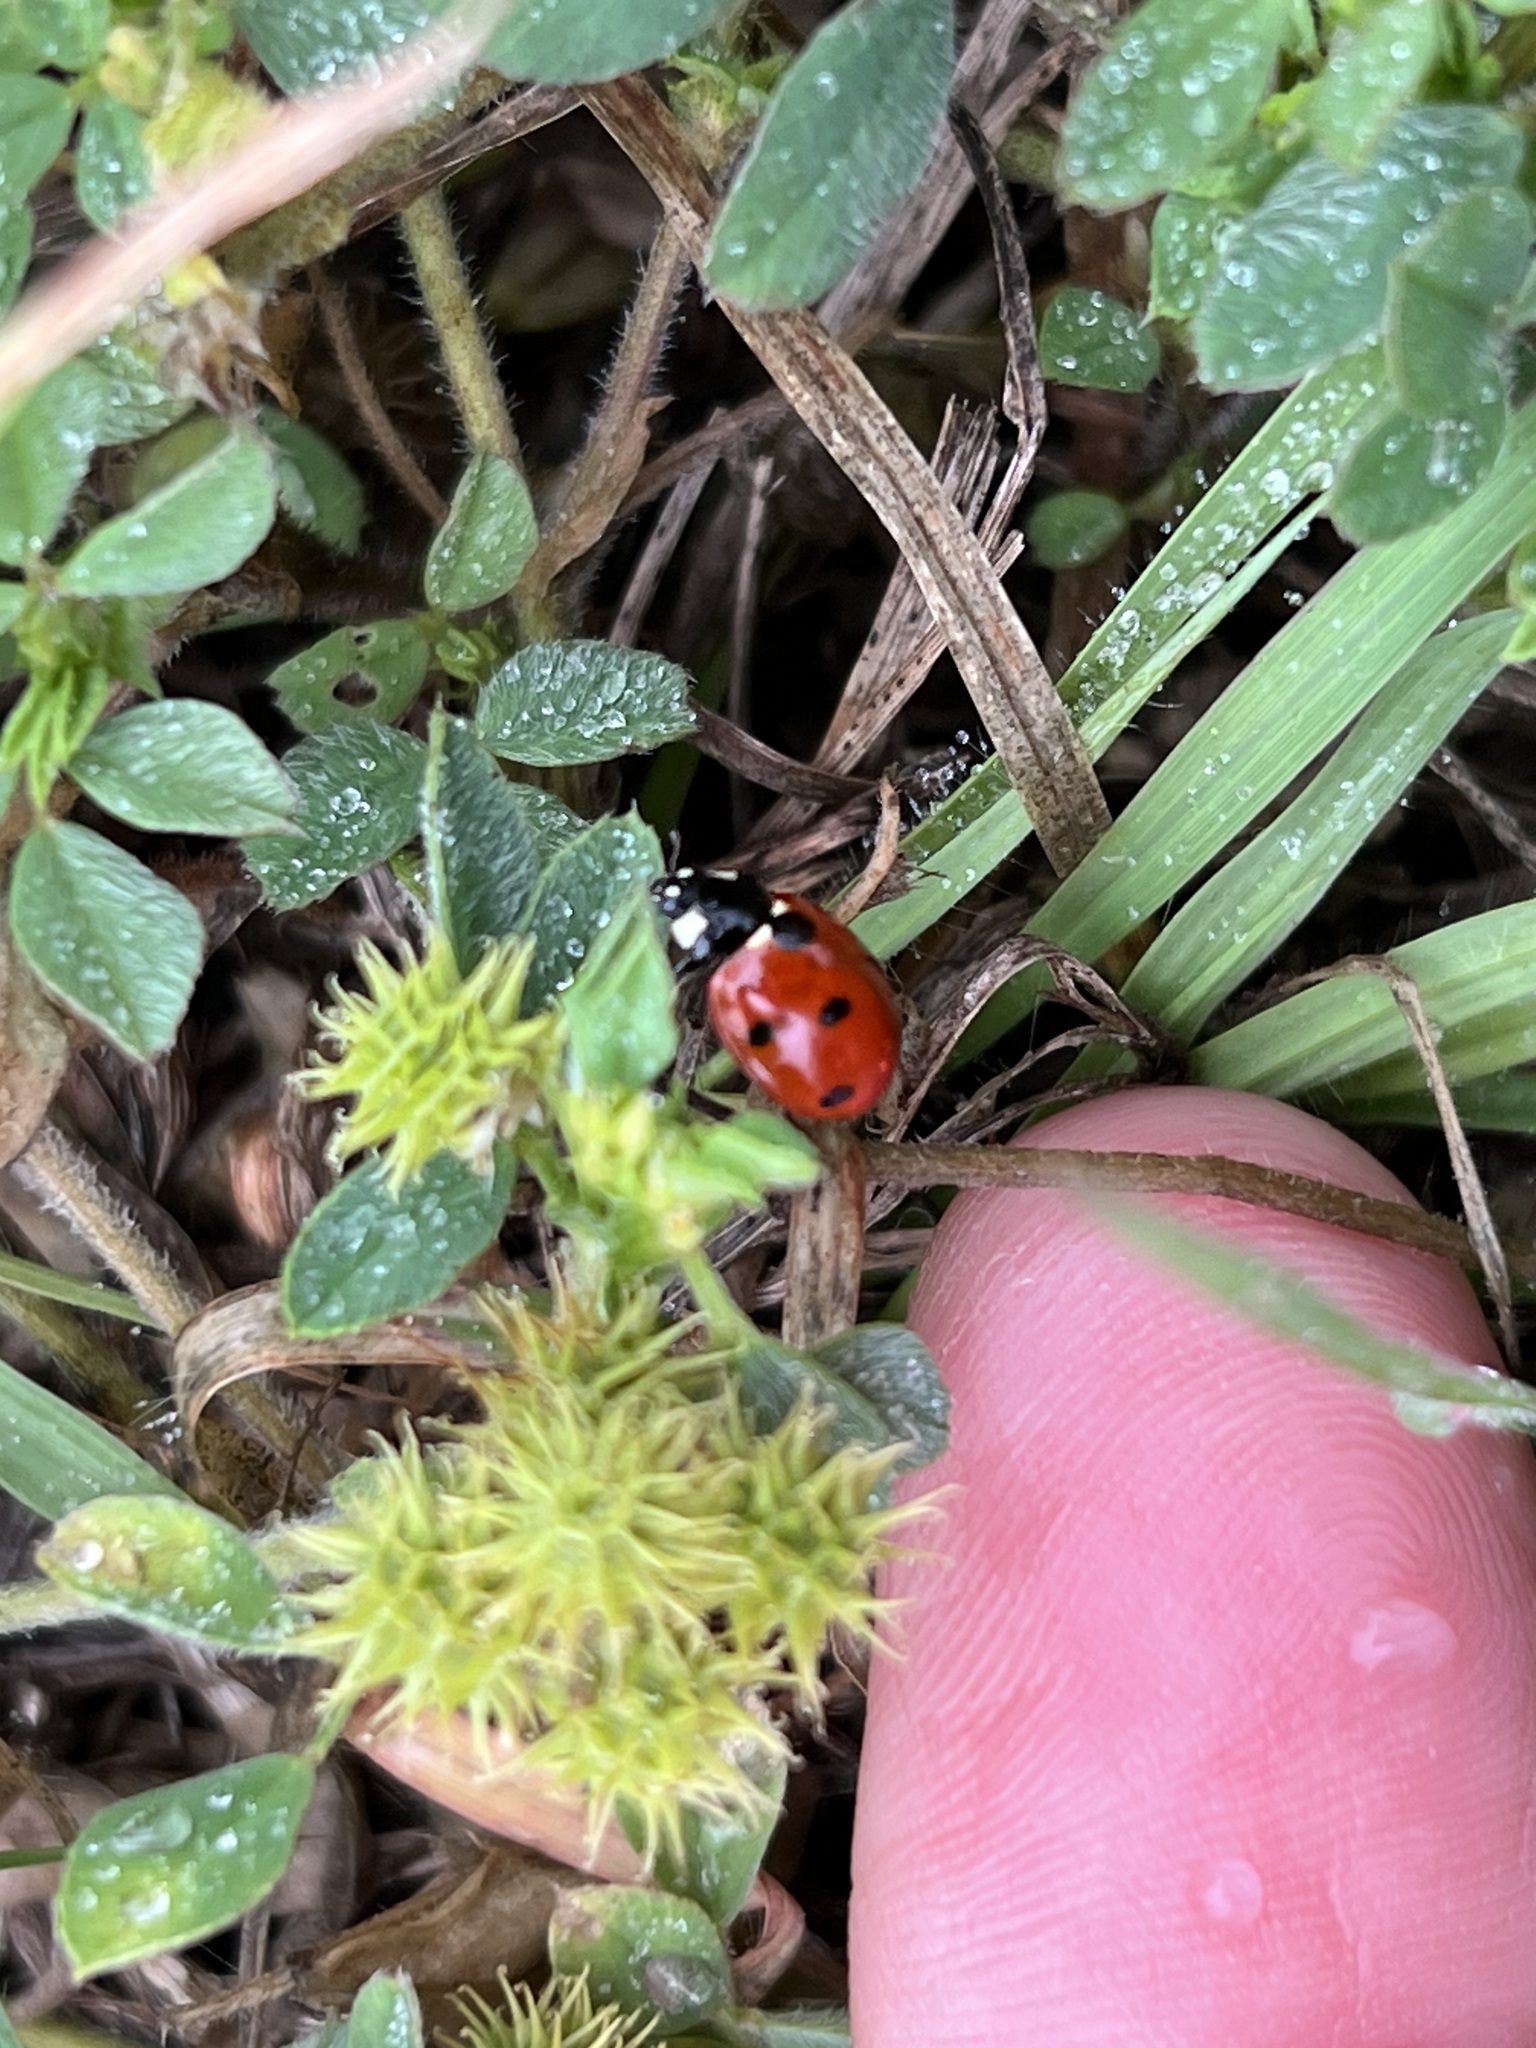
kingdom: Animalia
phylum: Arthropoda
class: Insecta
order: Coleoptera
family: Coccinellidae
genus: Coccinella
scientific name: Coccinella septempunctata
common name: Sevenspotted lady beetle
